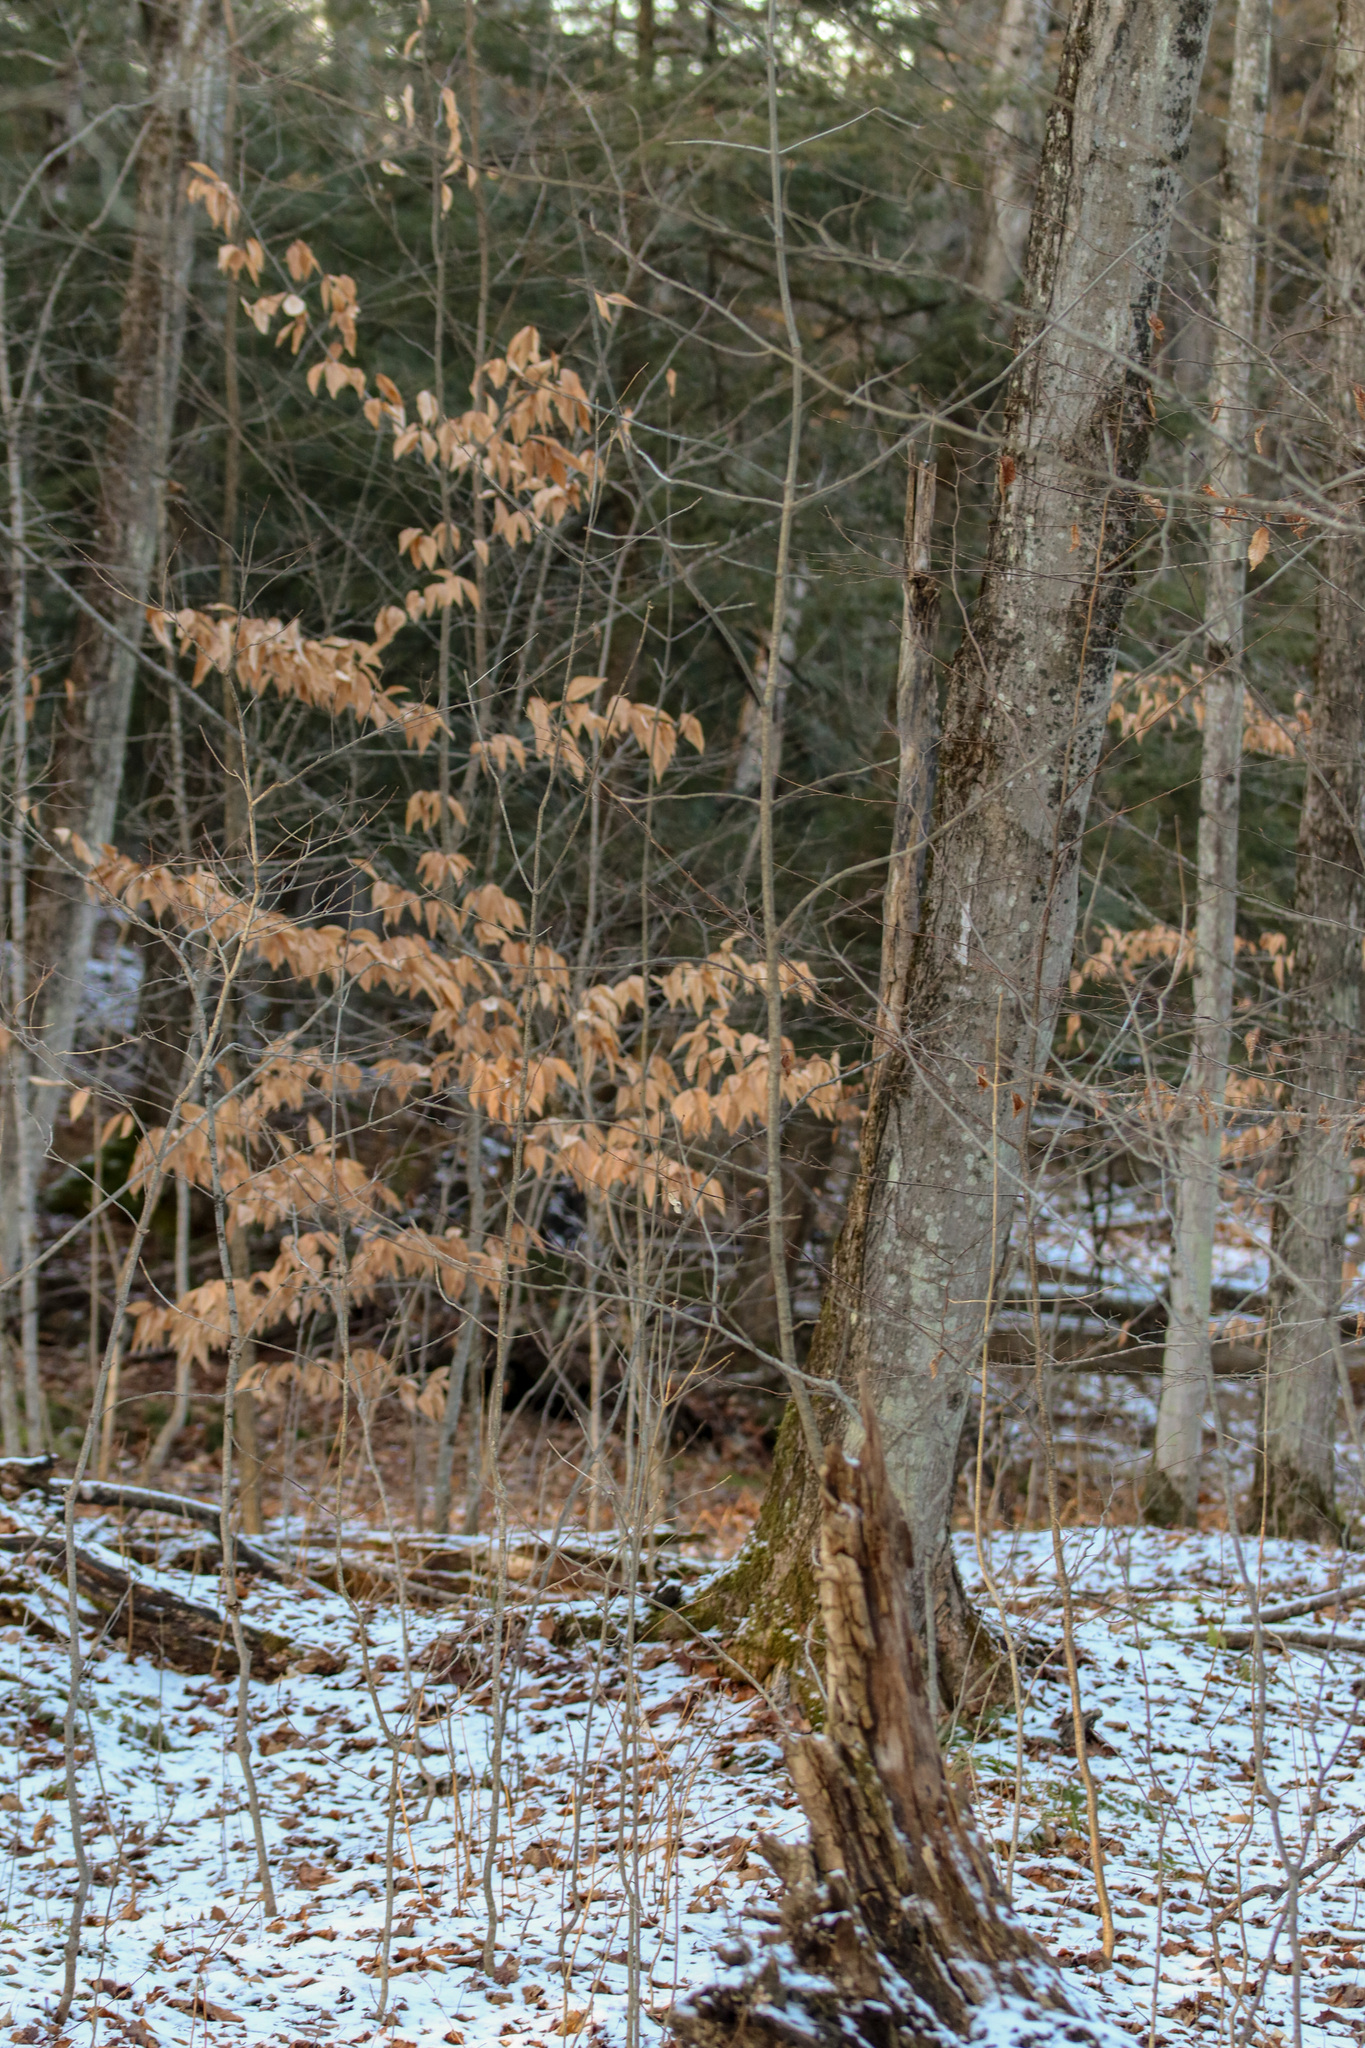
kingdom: Plantae
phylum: Tracheophyta
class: Magnoliopsida
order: Fagales
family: Fagaceae
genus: Fagus
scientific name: Fagus grandifolia
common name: American beech
